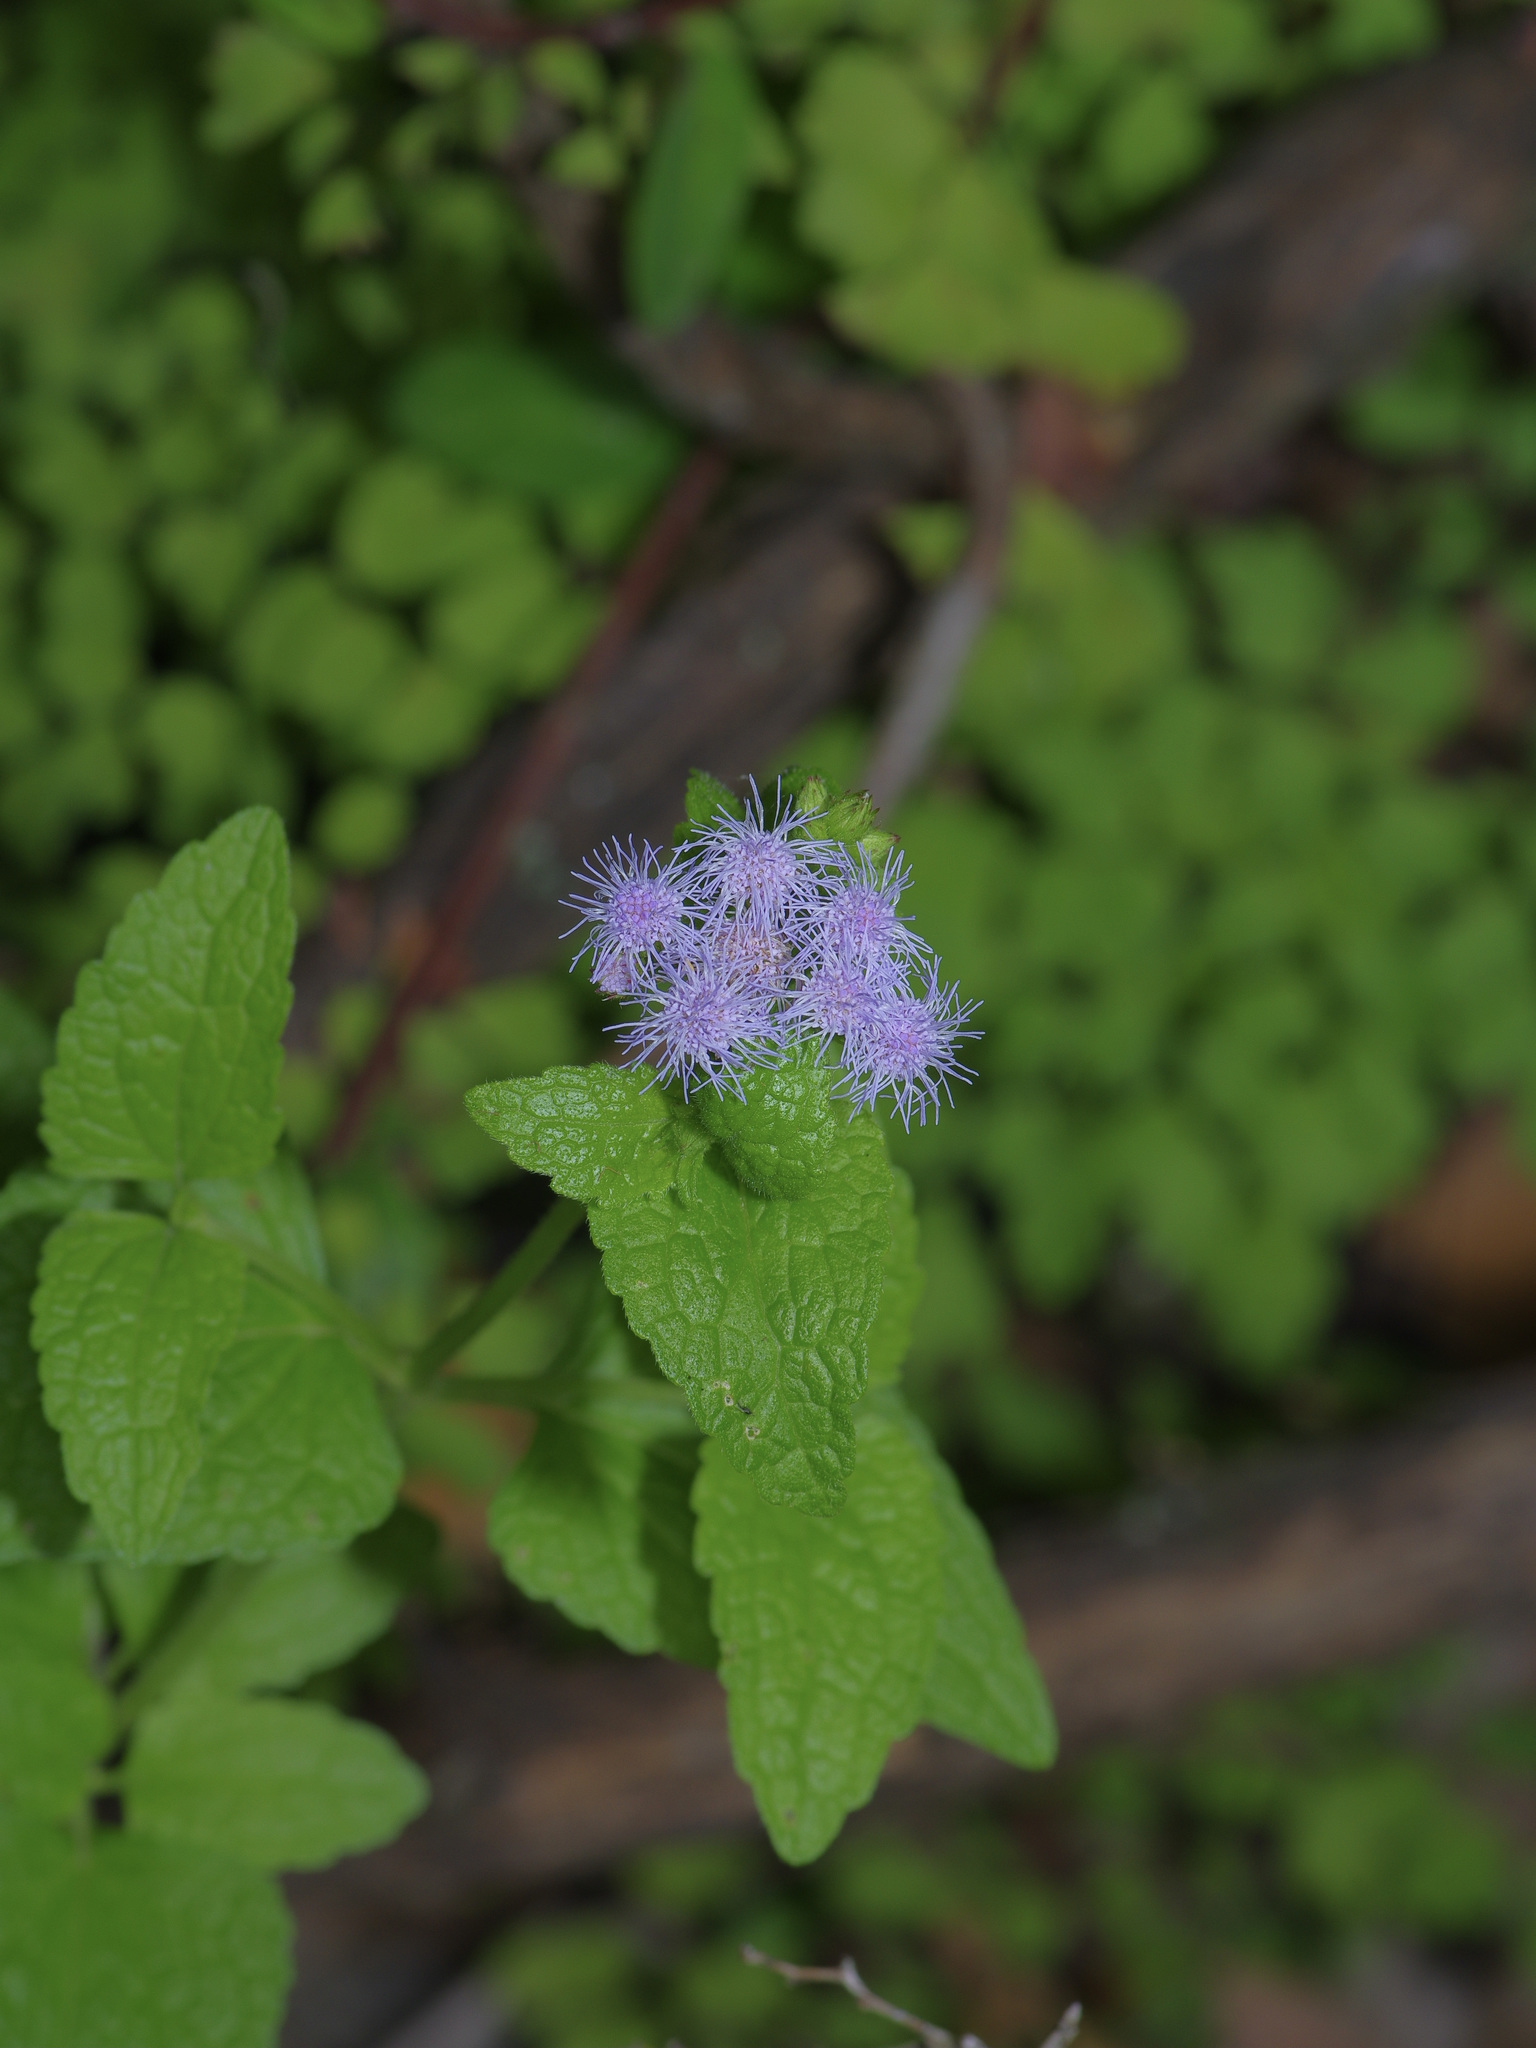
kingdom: Plantae
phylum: Tracheophyta
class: Magnoliopsida
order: Asterales
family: Asteraceae
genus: Conoclinium
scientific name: Conoclinium coelestinum
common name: Blue mistflower
